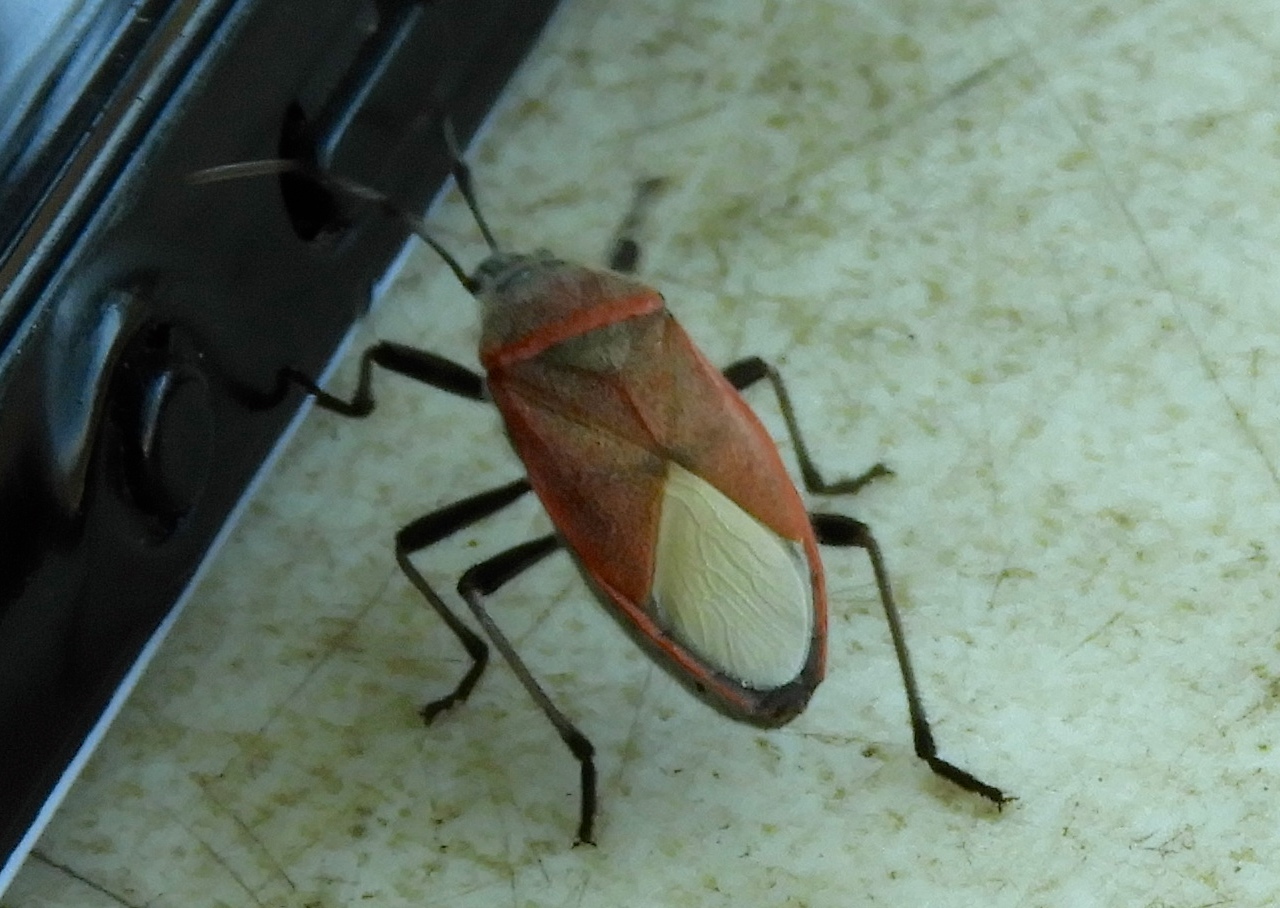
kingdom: Animalia
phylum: Arthropoda
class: Insecta
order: Hemiptera
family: Largidae
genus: Largus
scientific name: Largus
